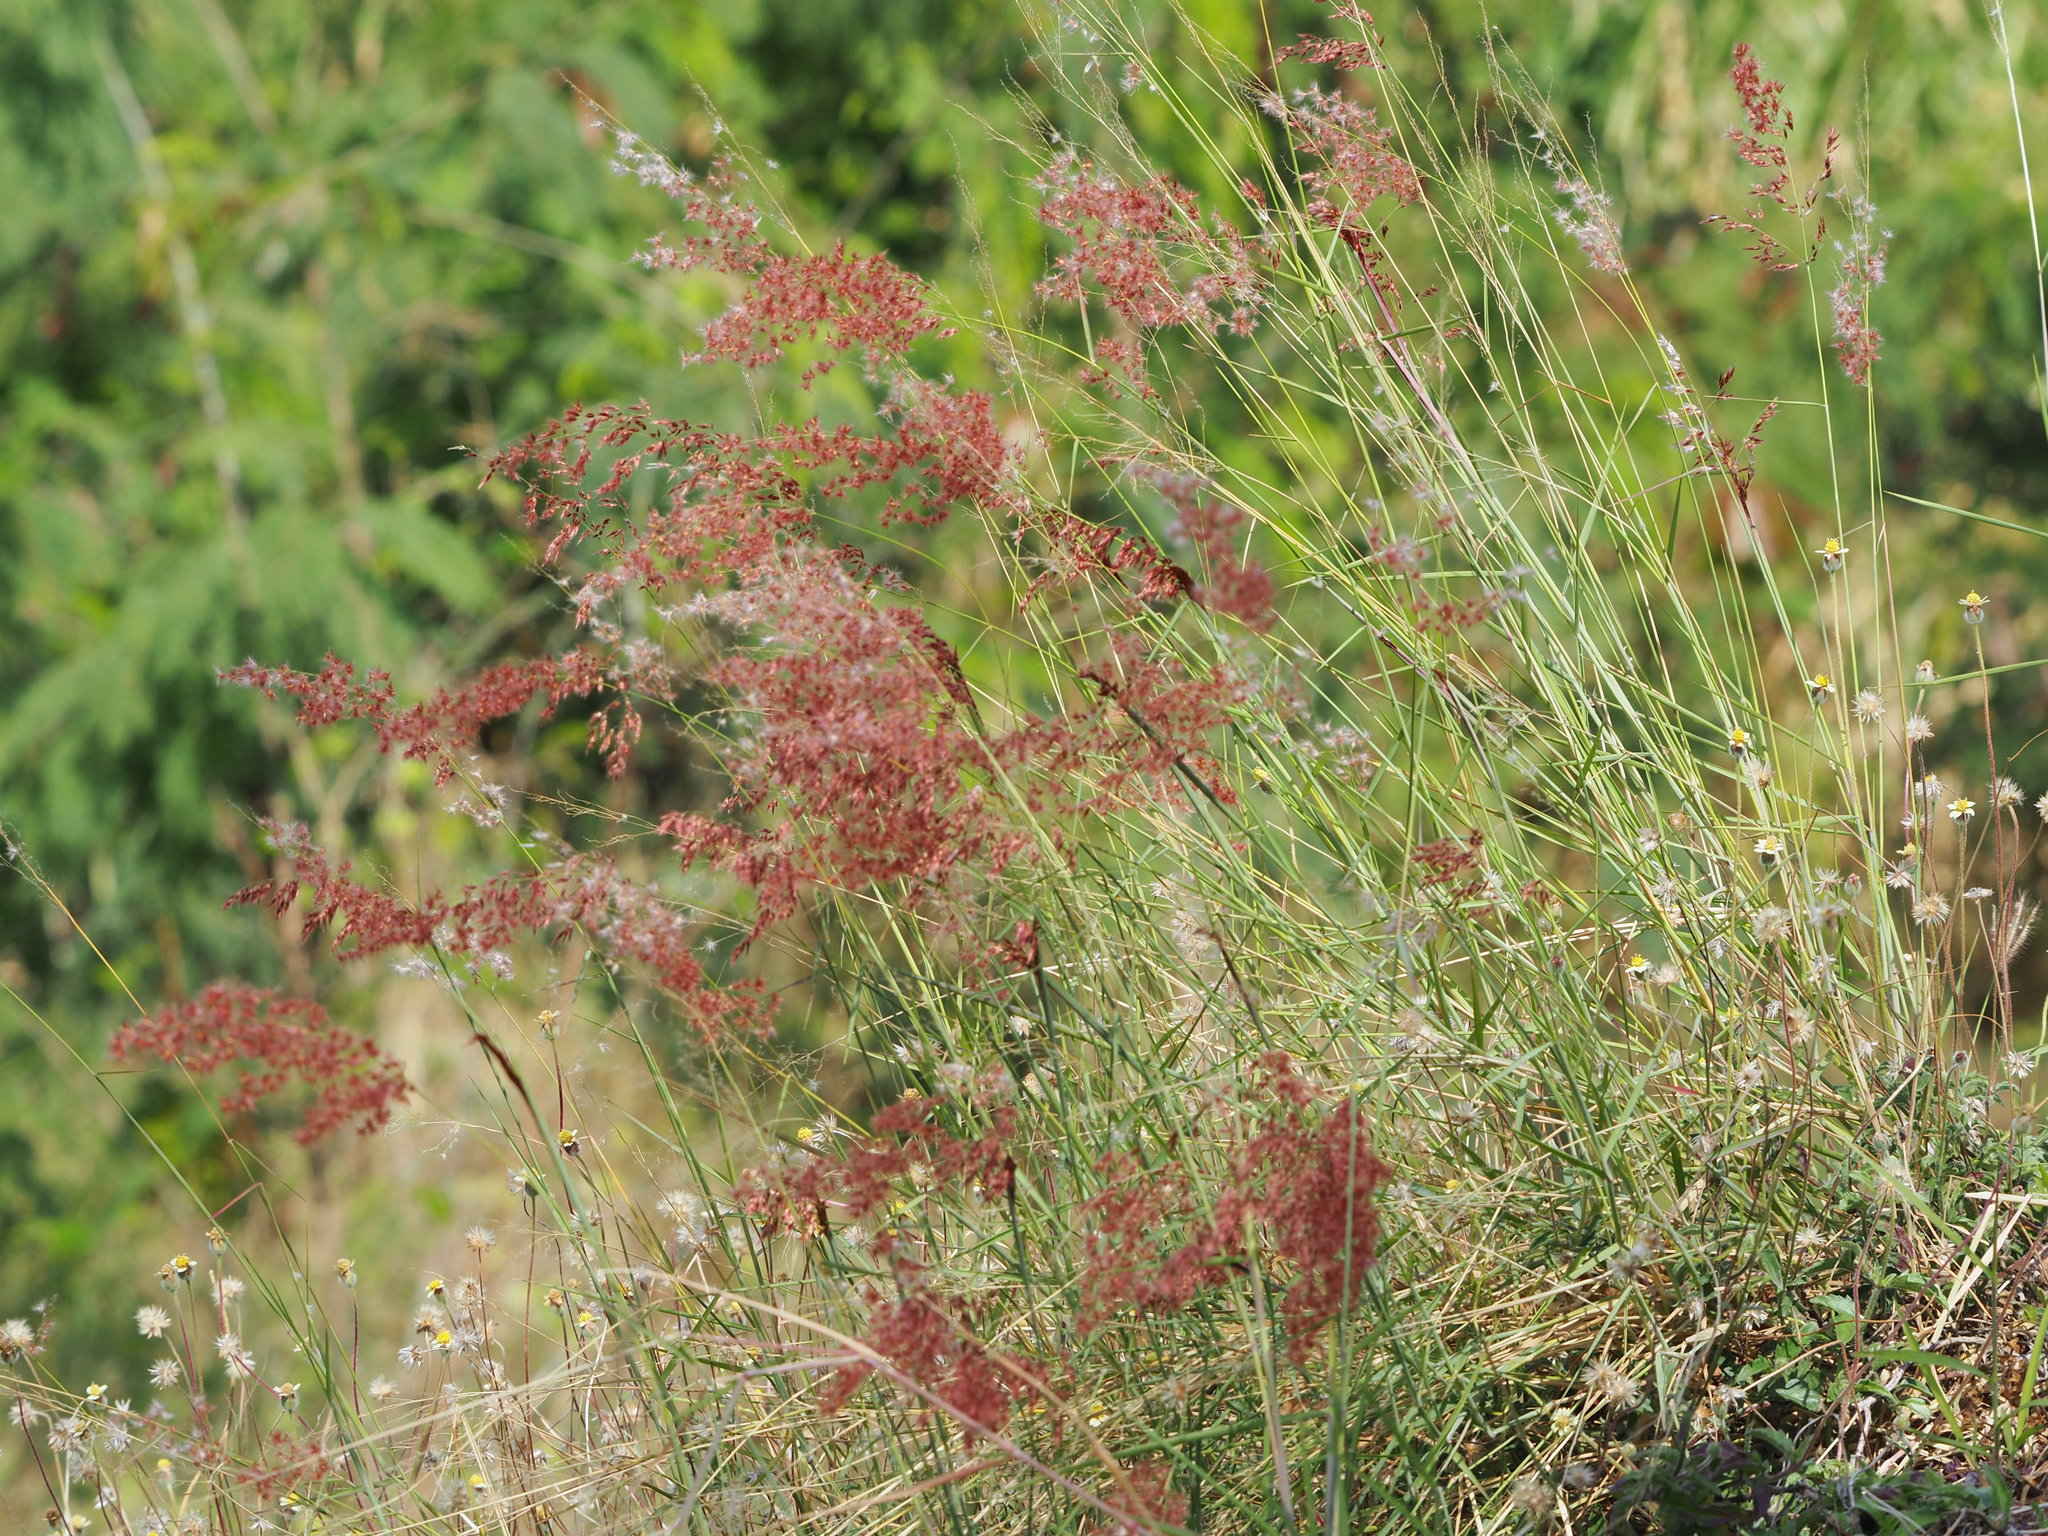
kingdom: Plantae
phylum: Tracheophyta
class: Liliopsida
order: Poales
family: Poaceae
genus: Melinis
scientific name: Melinis repens
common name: Rose natal grass
